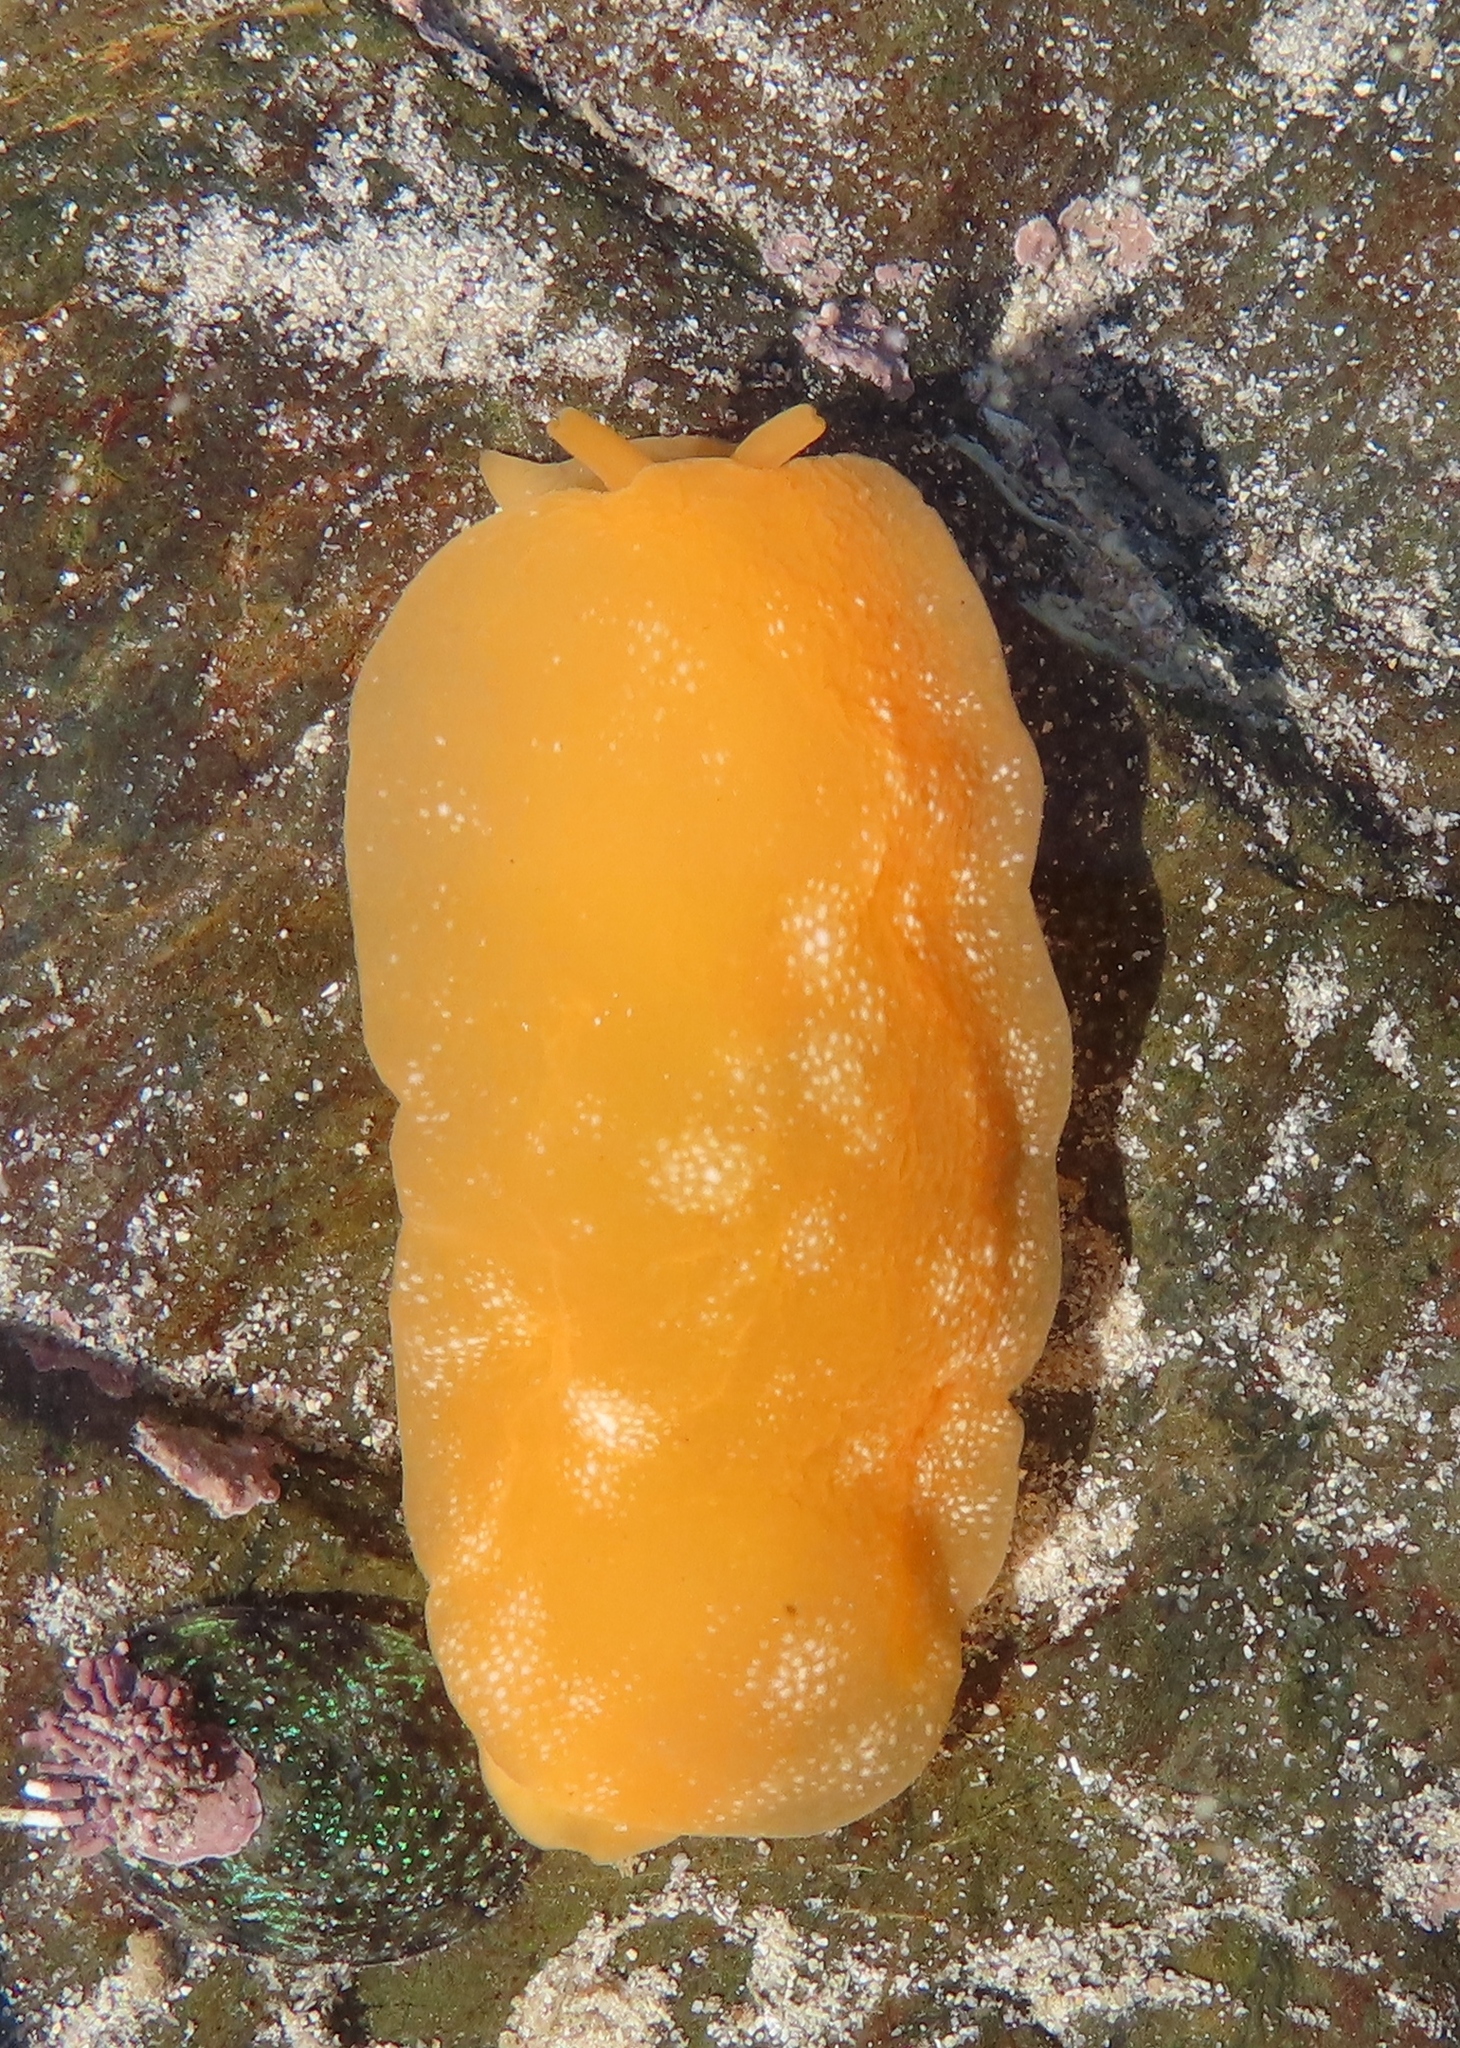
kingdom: Animalia
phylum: Mollusca
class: Gastropoda
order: Pleurobranchida
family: Pleurobranchidae
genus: Berthellina
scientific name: Berthellina granulata
